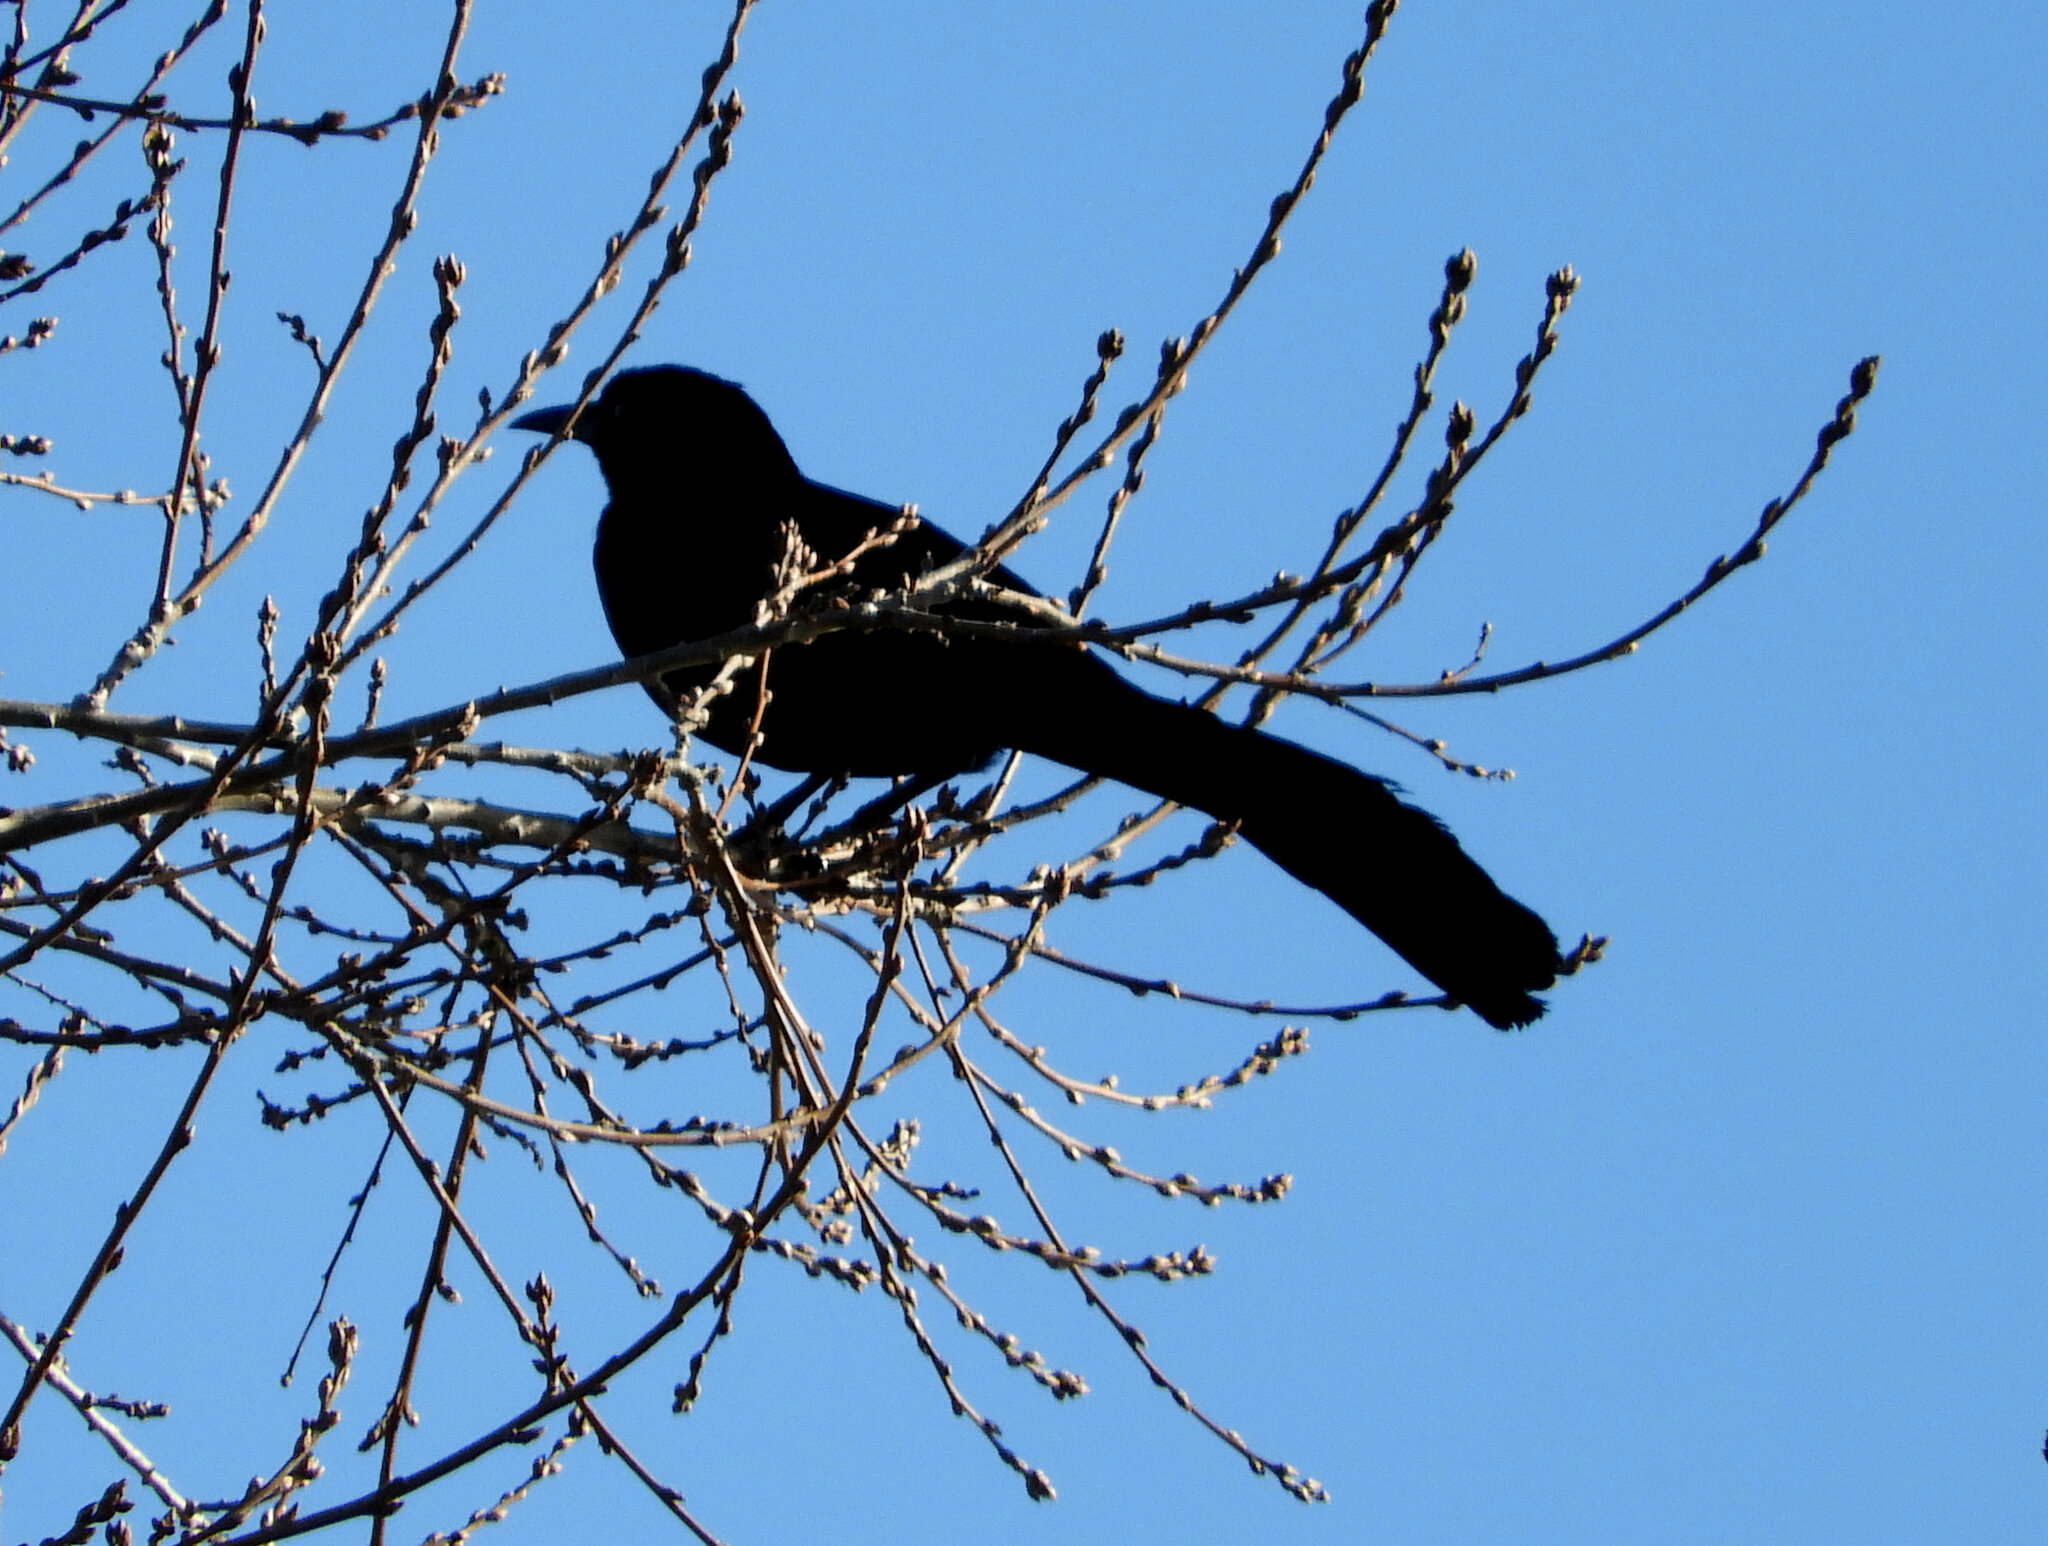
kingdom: Animalia
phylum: Chordata
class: Aves
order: Passeriformes
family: Icteridae
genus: Quiscalus
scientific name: Quiscalus mexicanus
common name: Great-tailed grackle
